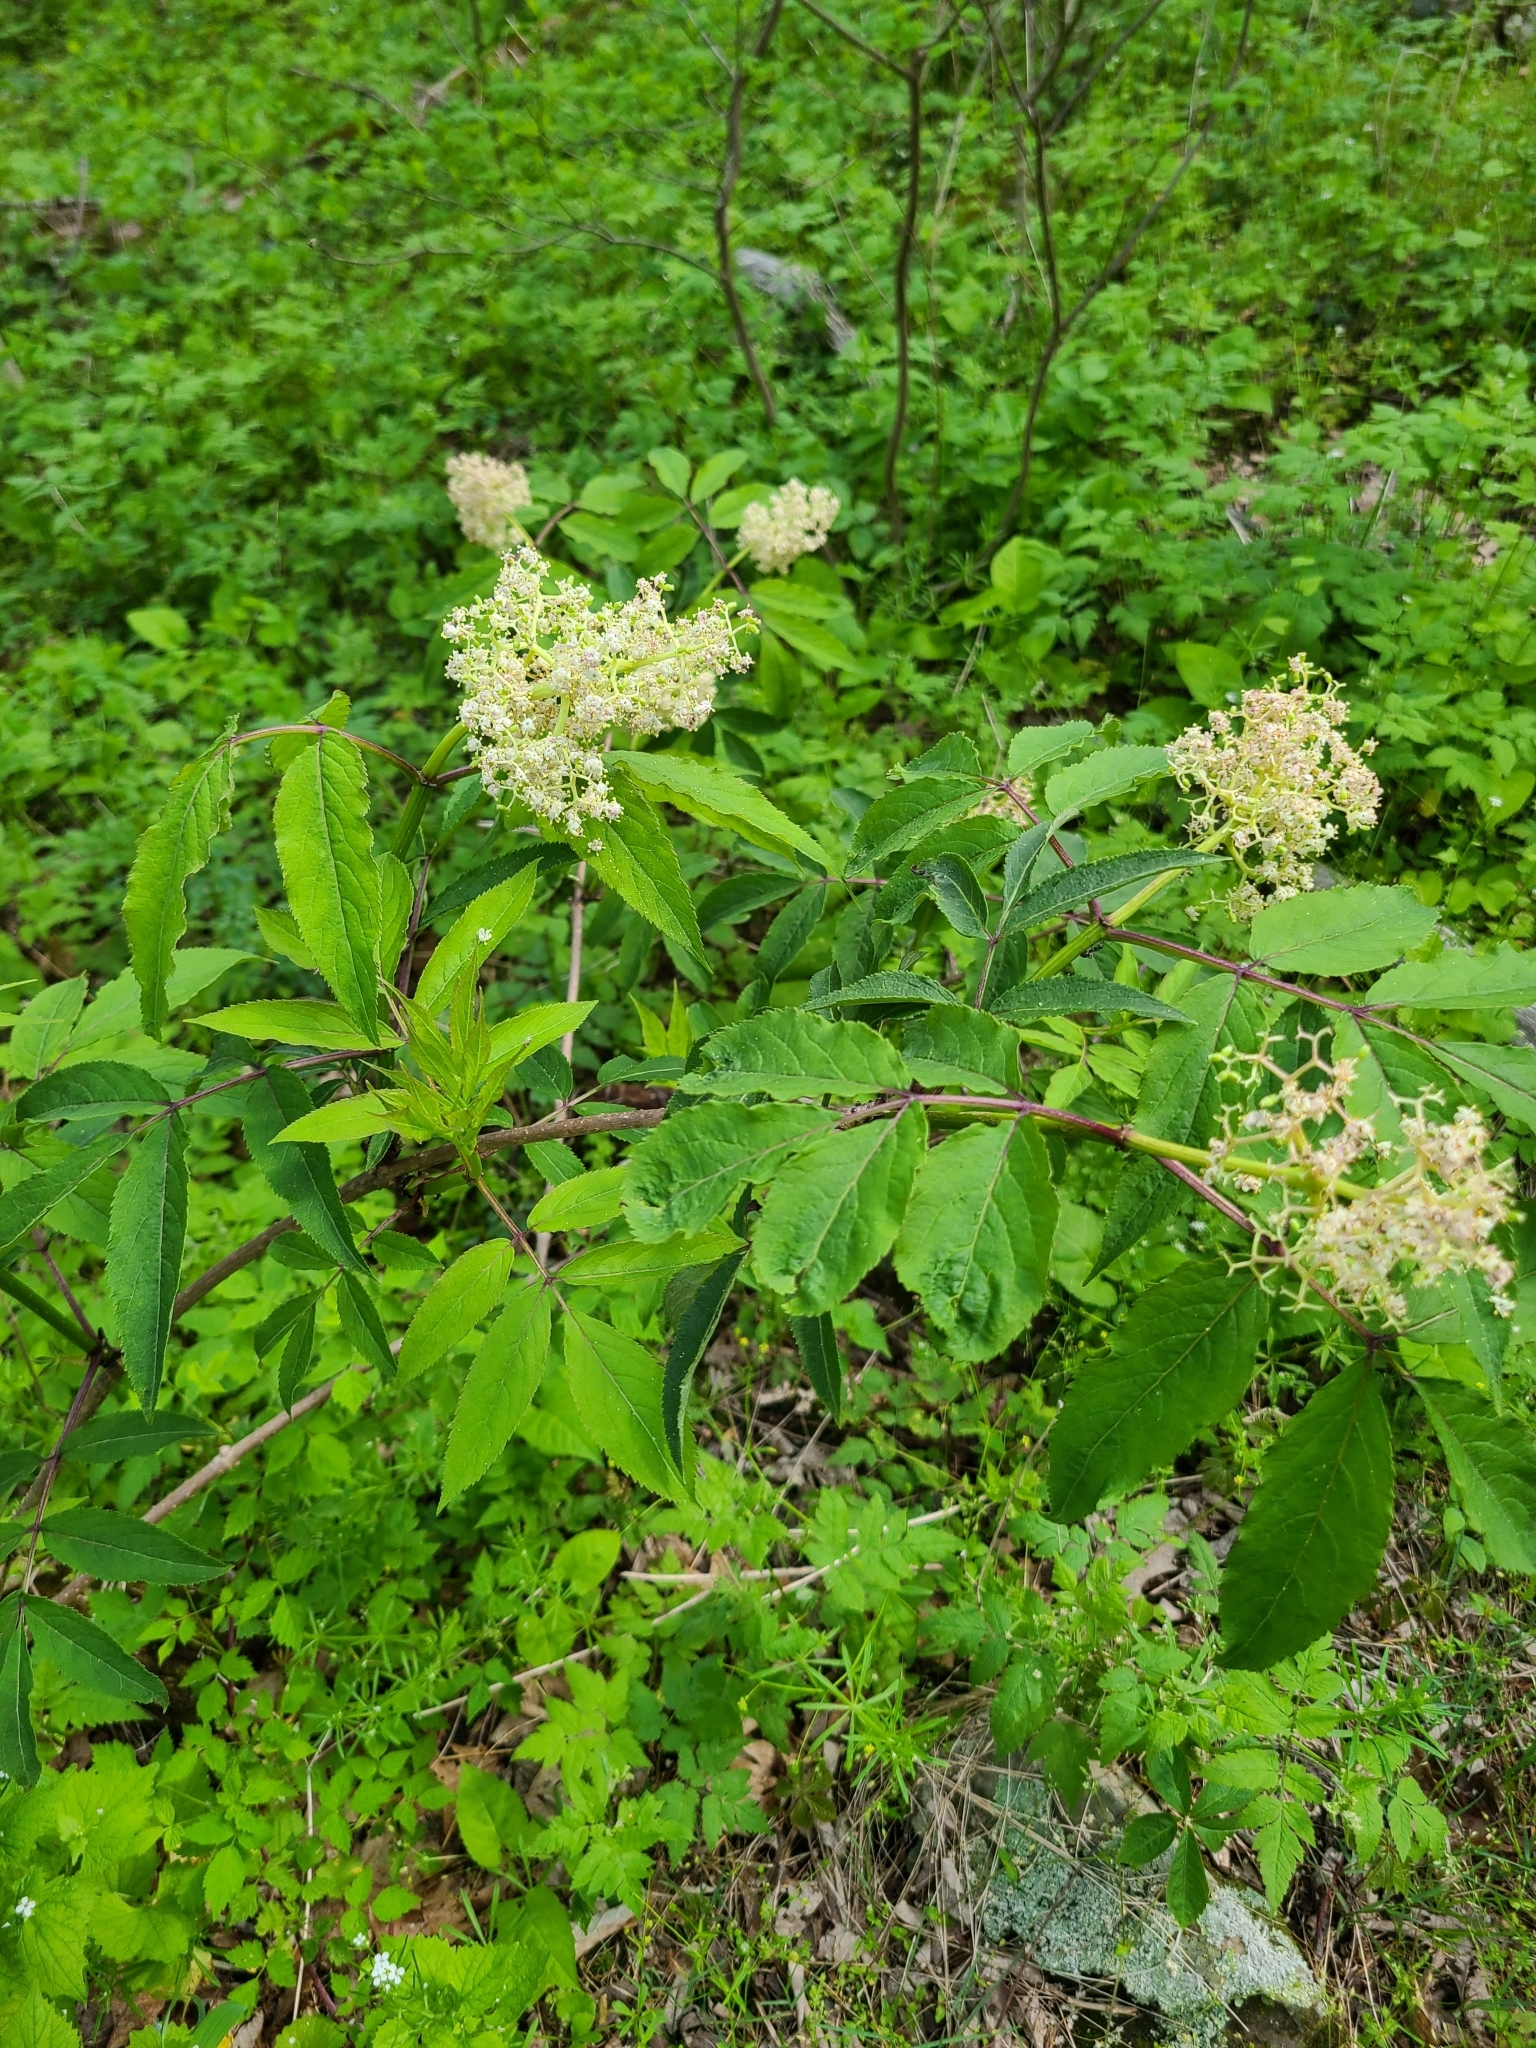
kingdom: Plantae
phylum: Tracheophyta
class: Magnoliopsida
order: Dipsacales
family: Viburnaceae
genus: Sambucus
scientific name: Sambucus racemosa
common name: Red-berried elder
